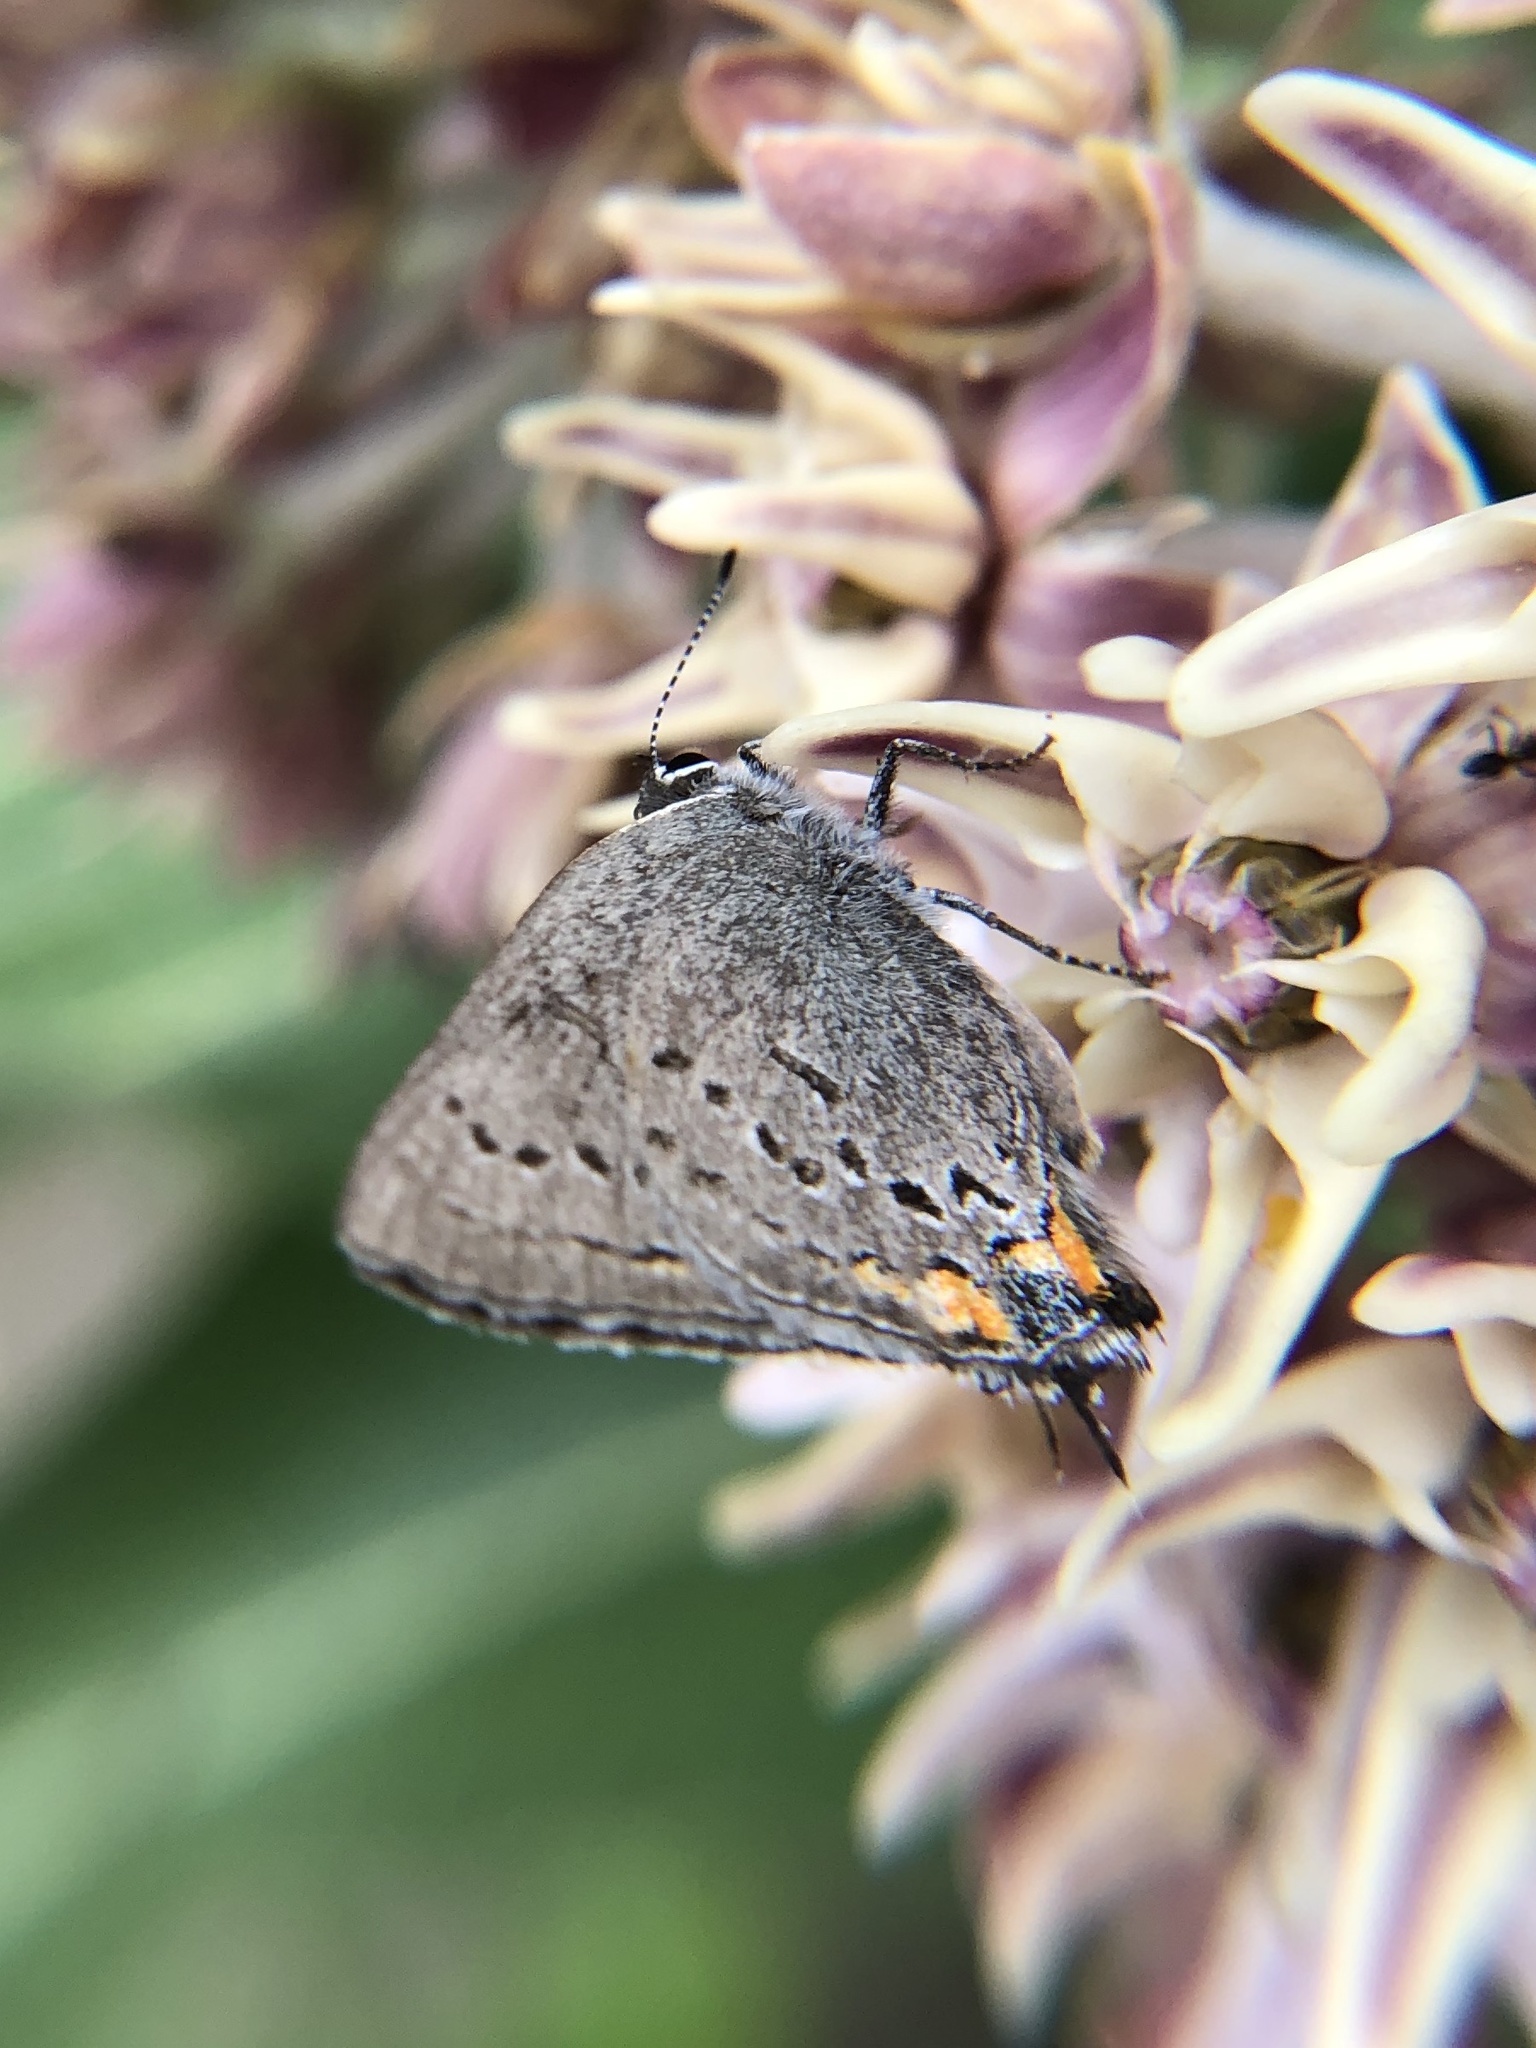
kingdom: Animalia
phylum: Arthropoda
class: Insecta
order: Lepidoptera
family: Lycaenidae
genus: Strymon
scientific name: Strymon acadica
